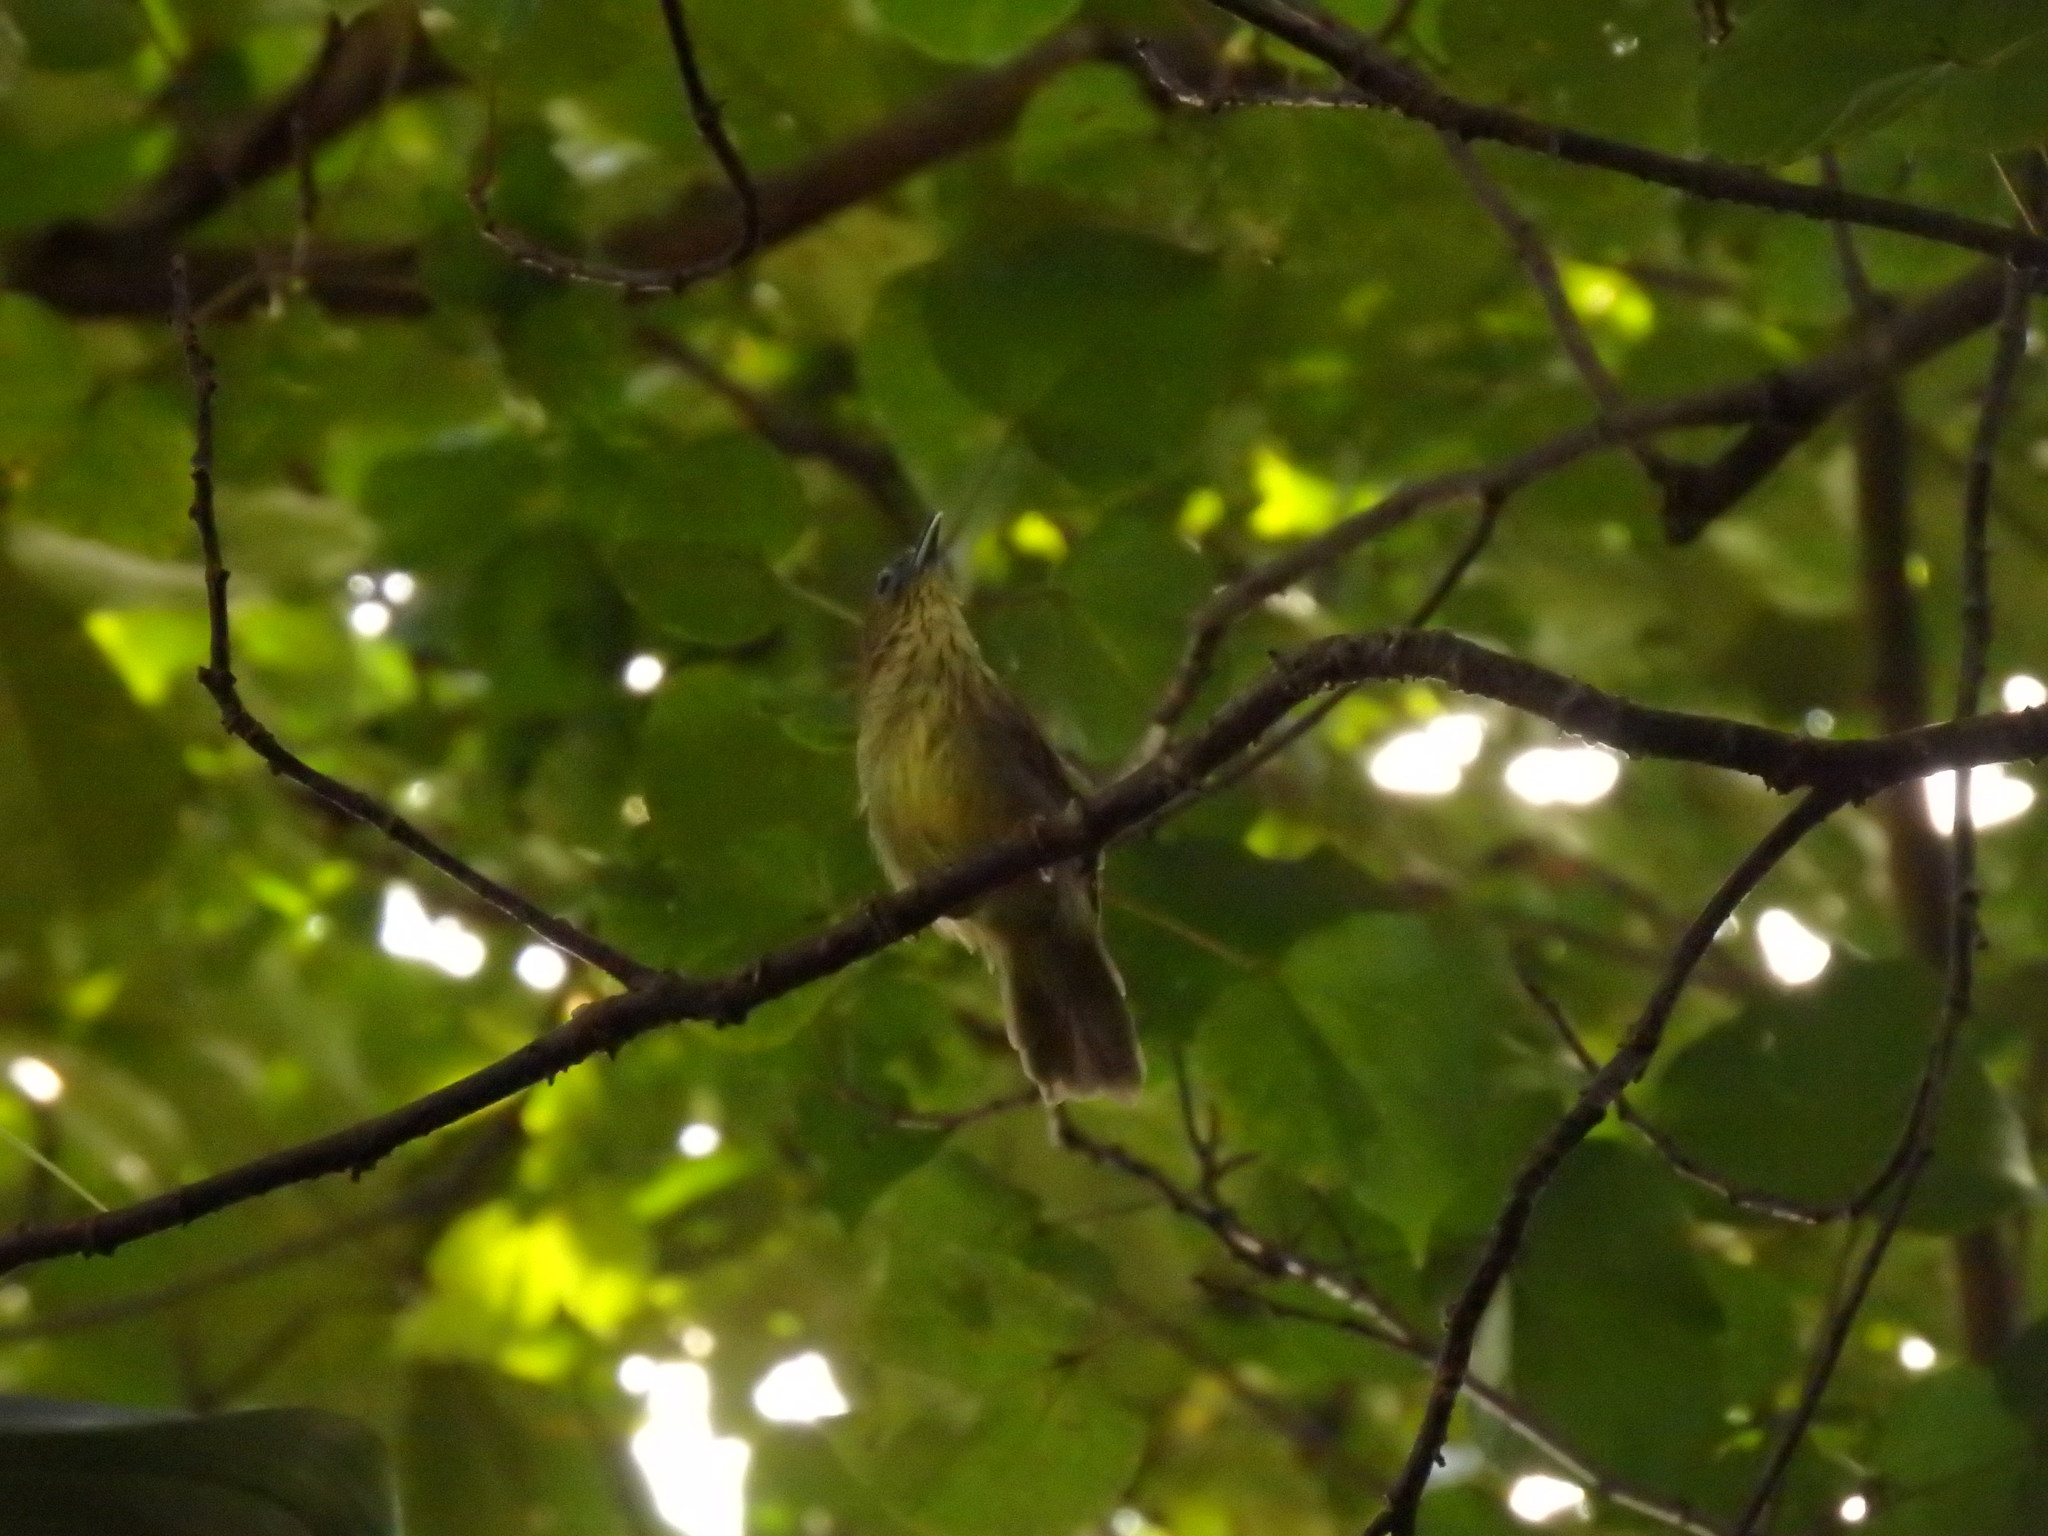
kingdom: Animalia
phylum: Chordata
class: Aves
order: Passeriformes
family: Timaliidae
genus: Macronus
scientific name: Macronus gularis
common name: Striped tit-babbler
